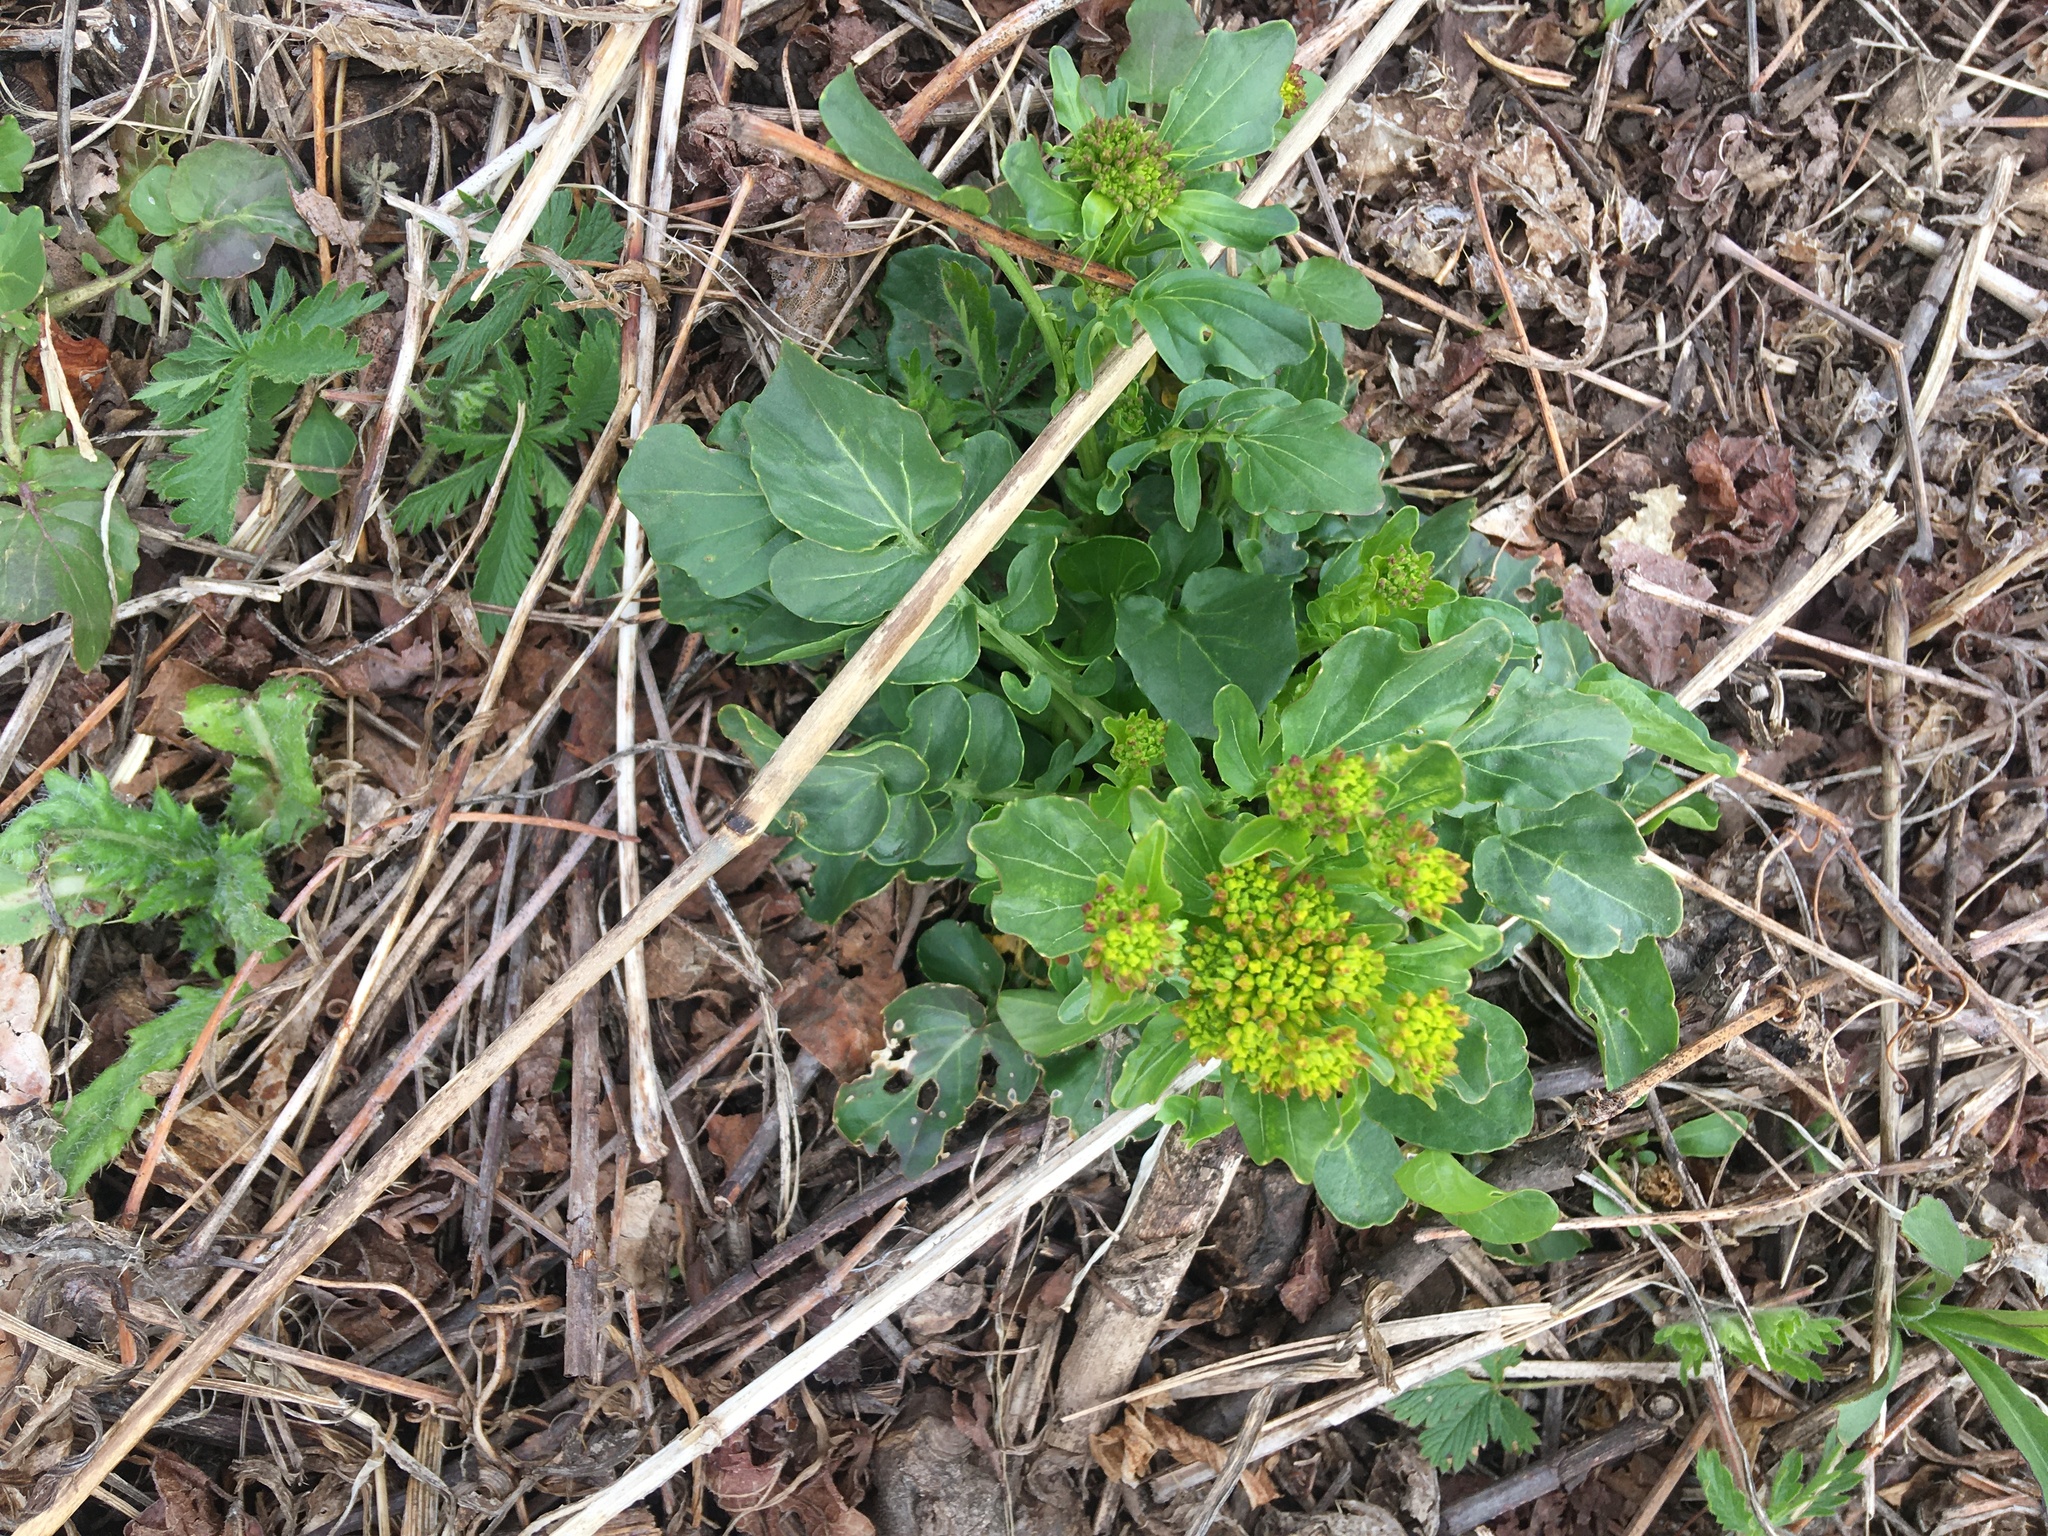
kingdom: Plantae
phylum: Tracheophyta
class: Magnoliopsida
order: Brassicales
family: Brassicaceae
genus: Barbarea
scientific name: Barbarea vulgaris
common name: Cressy-greens
